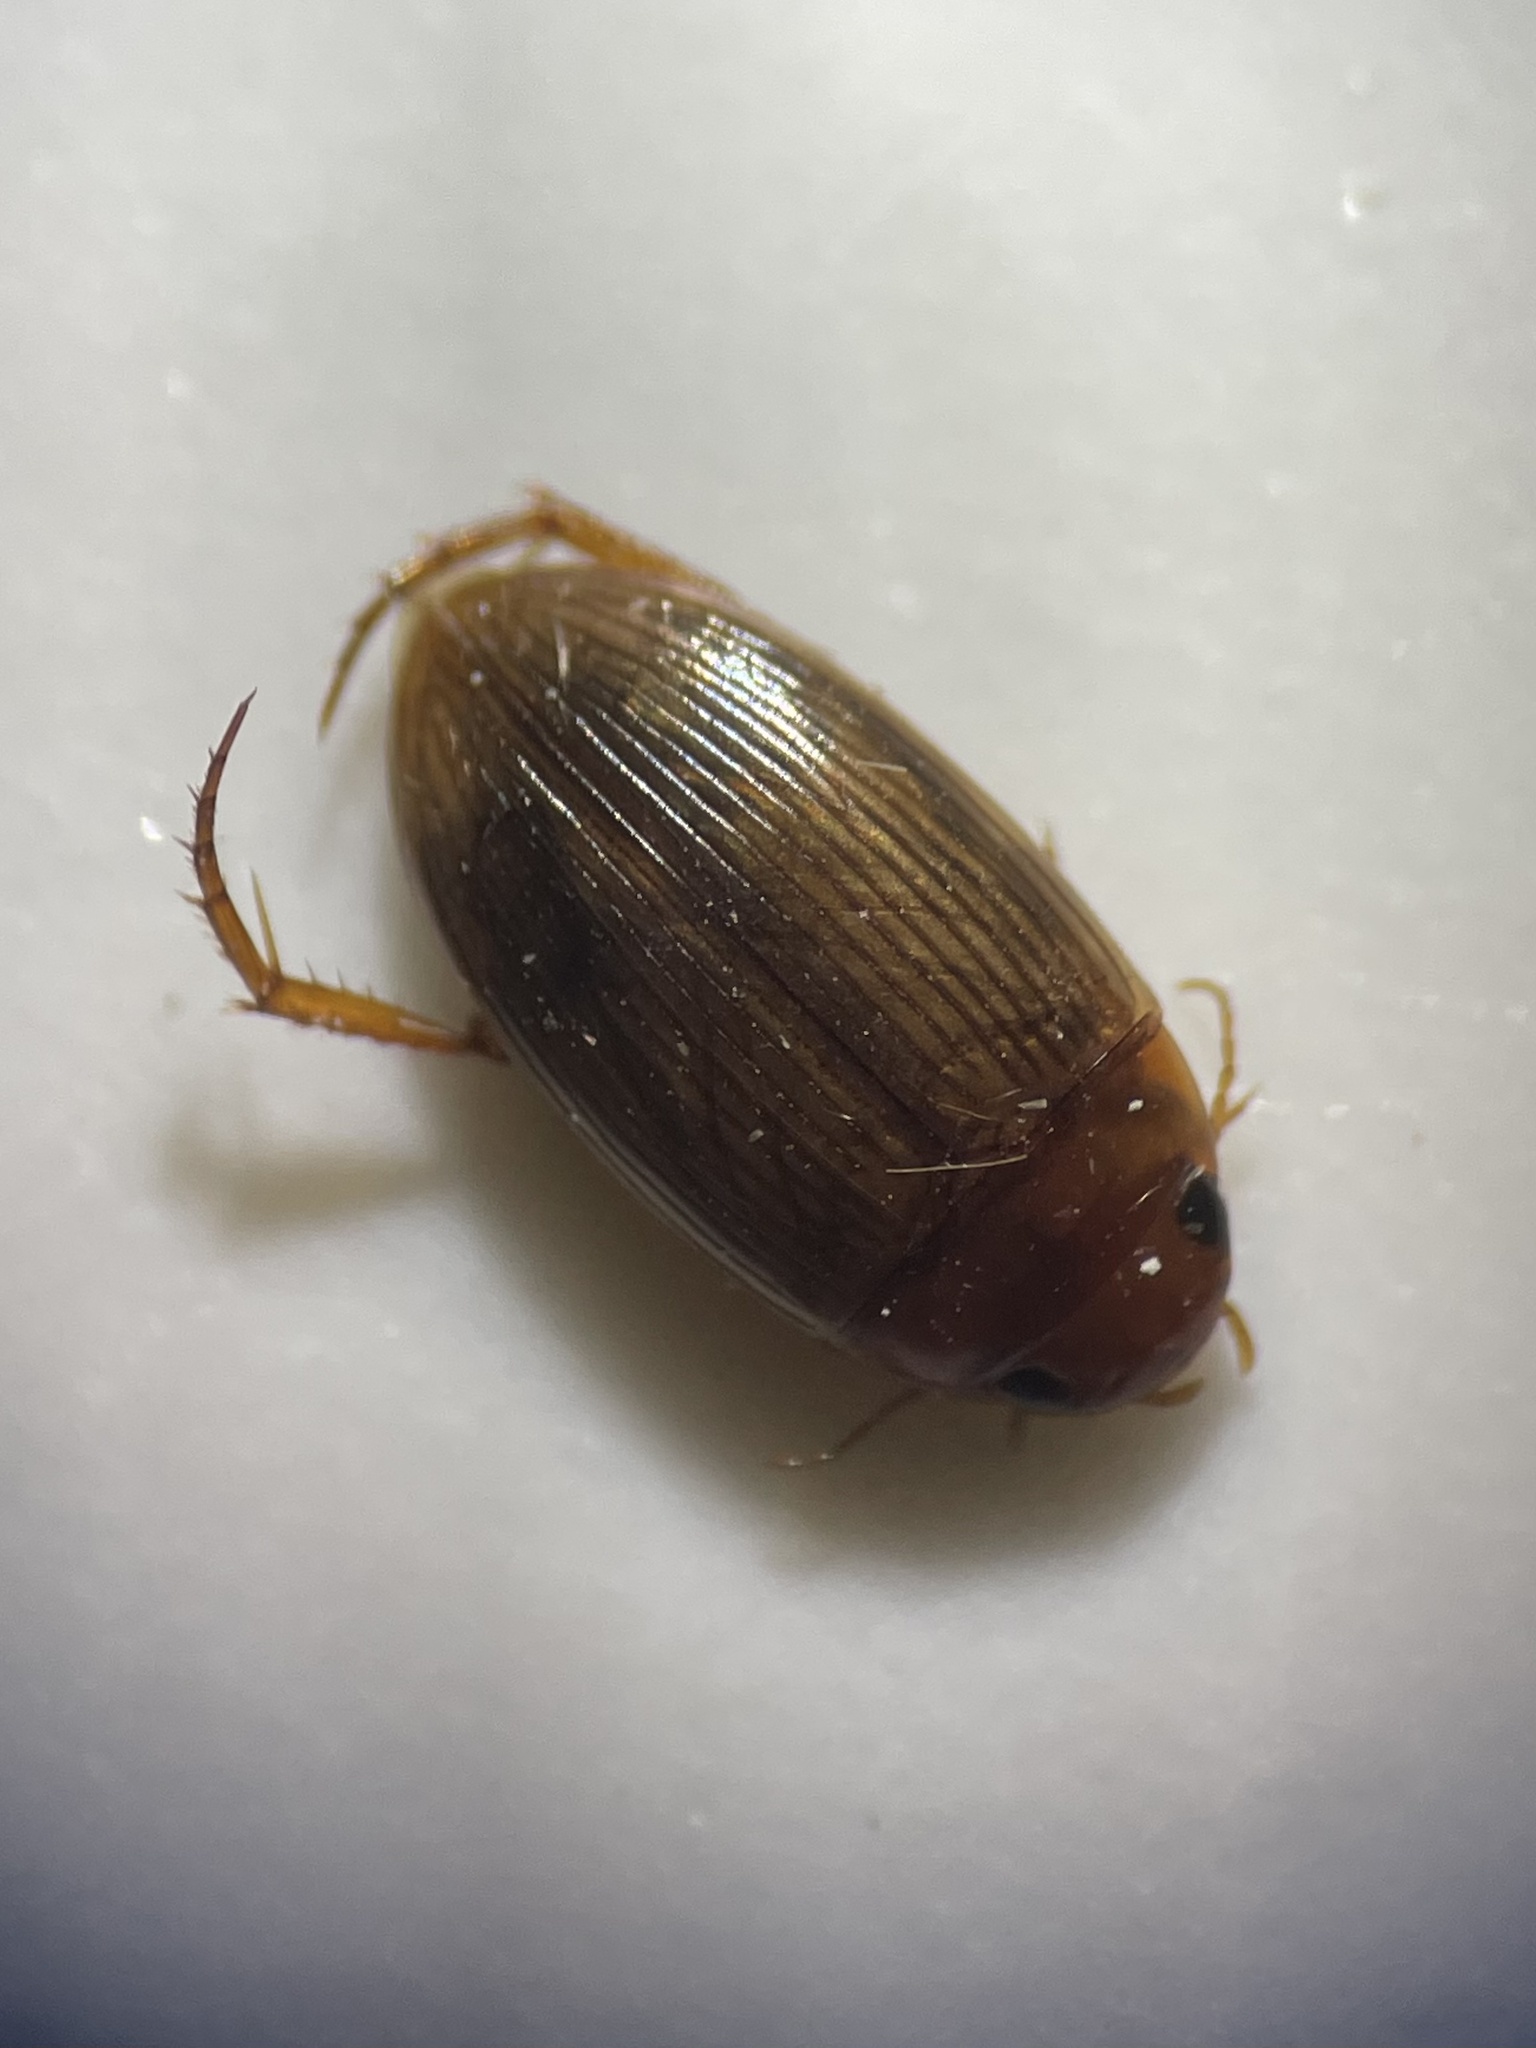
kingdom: Animalia
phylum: Arthropoda
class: Insecta
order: Coleoptera
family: Dytiscidae
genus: Copelatus
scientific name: Copelatus glyphicus
